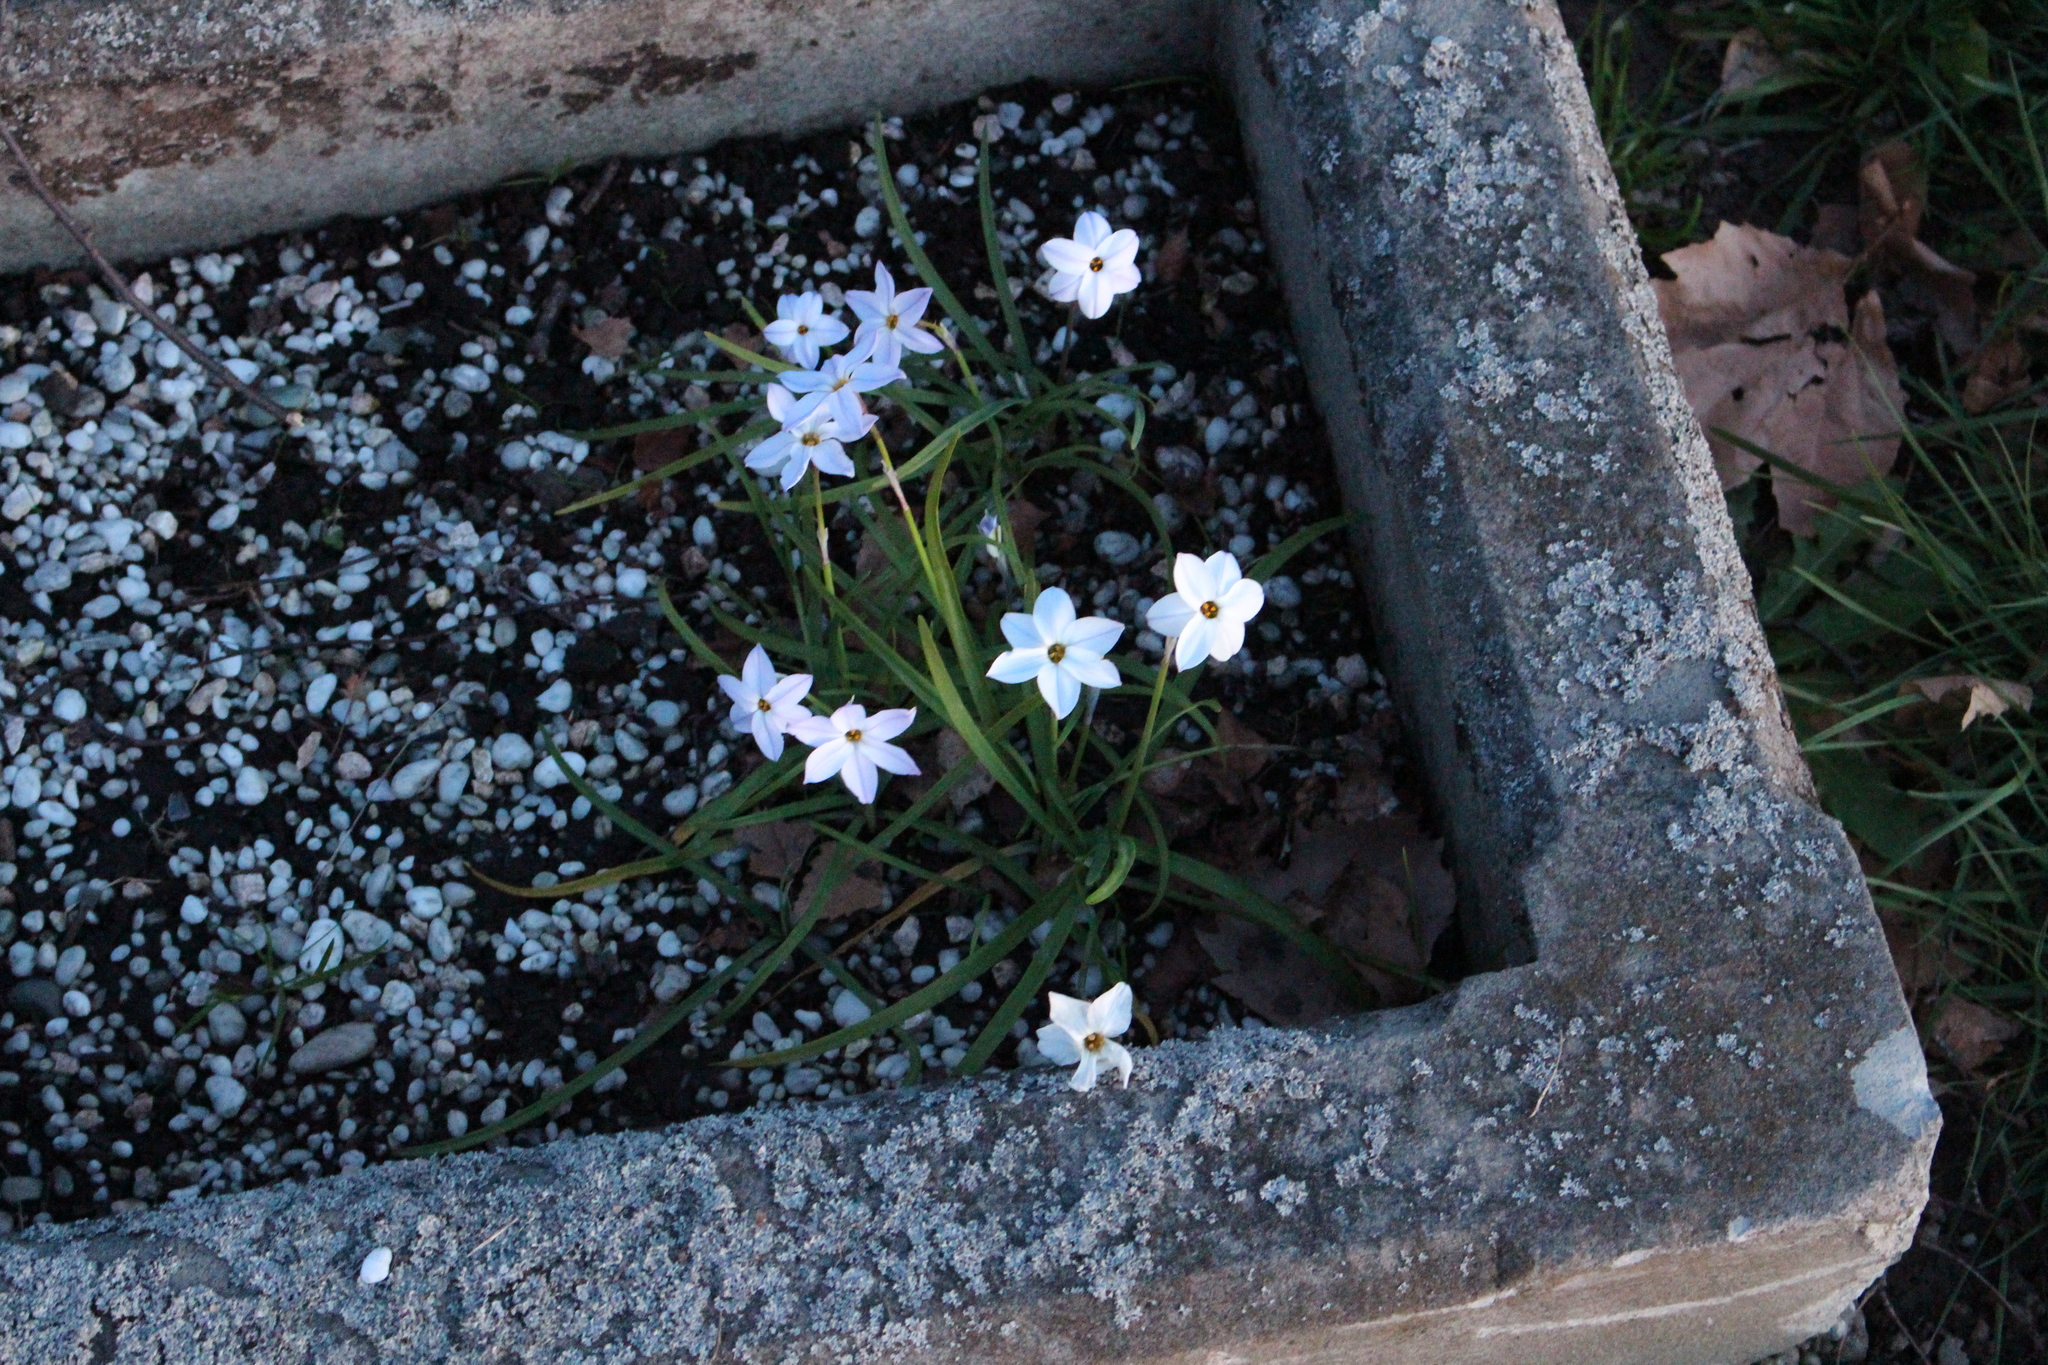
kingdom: Plantae
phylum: Tracheophyta
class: Liliopsida
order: Asparagales
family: Amaryllidaceae
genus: Ipheion
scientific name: Ipheion uniflorum
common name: Spring starflower
